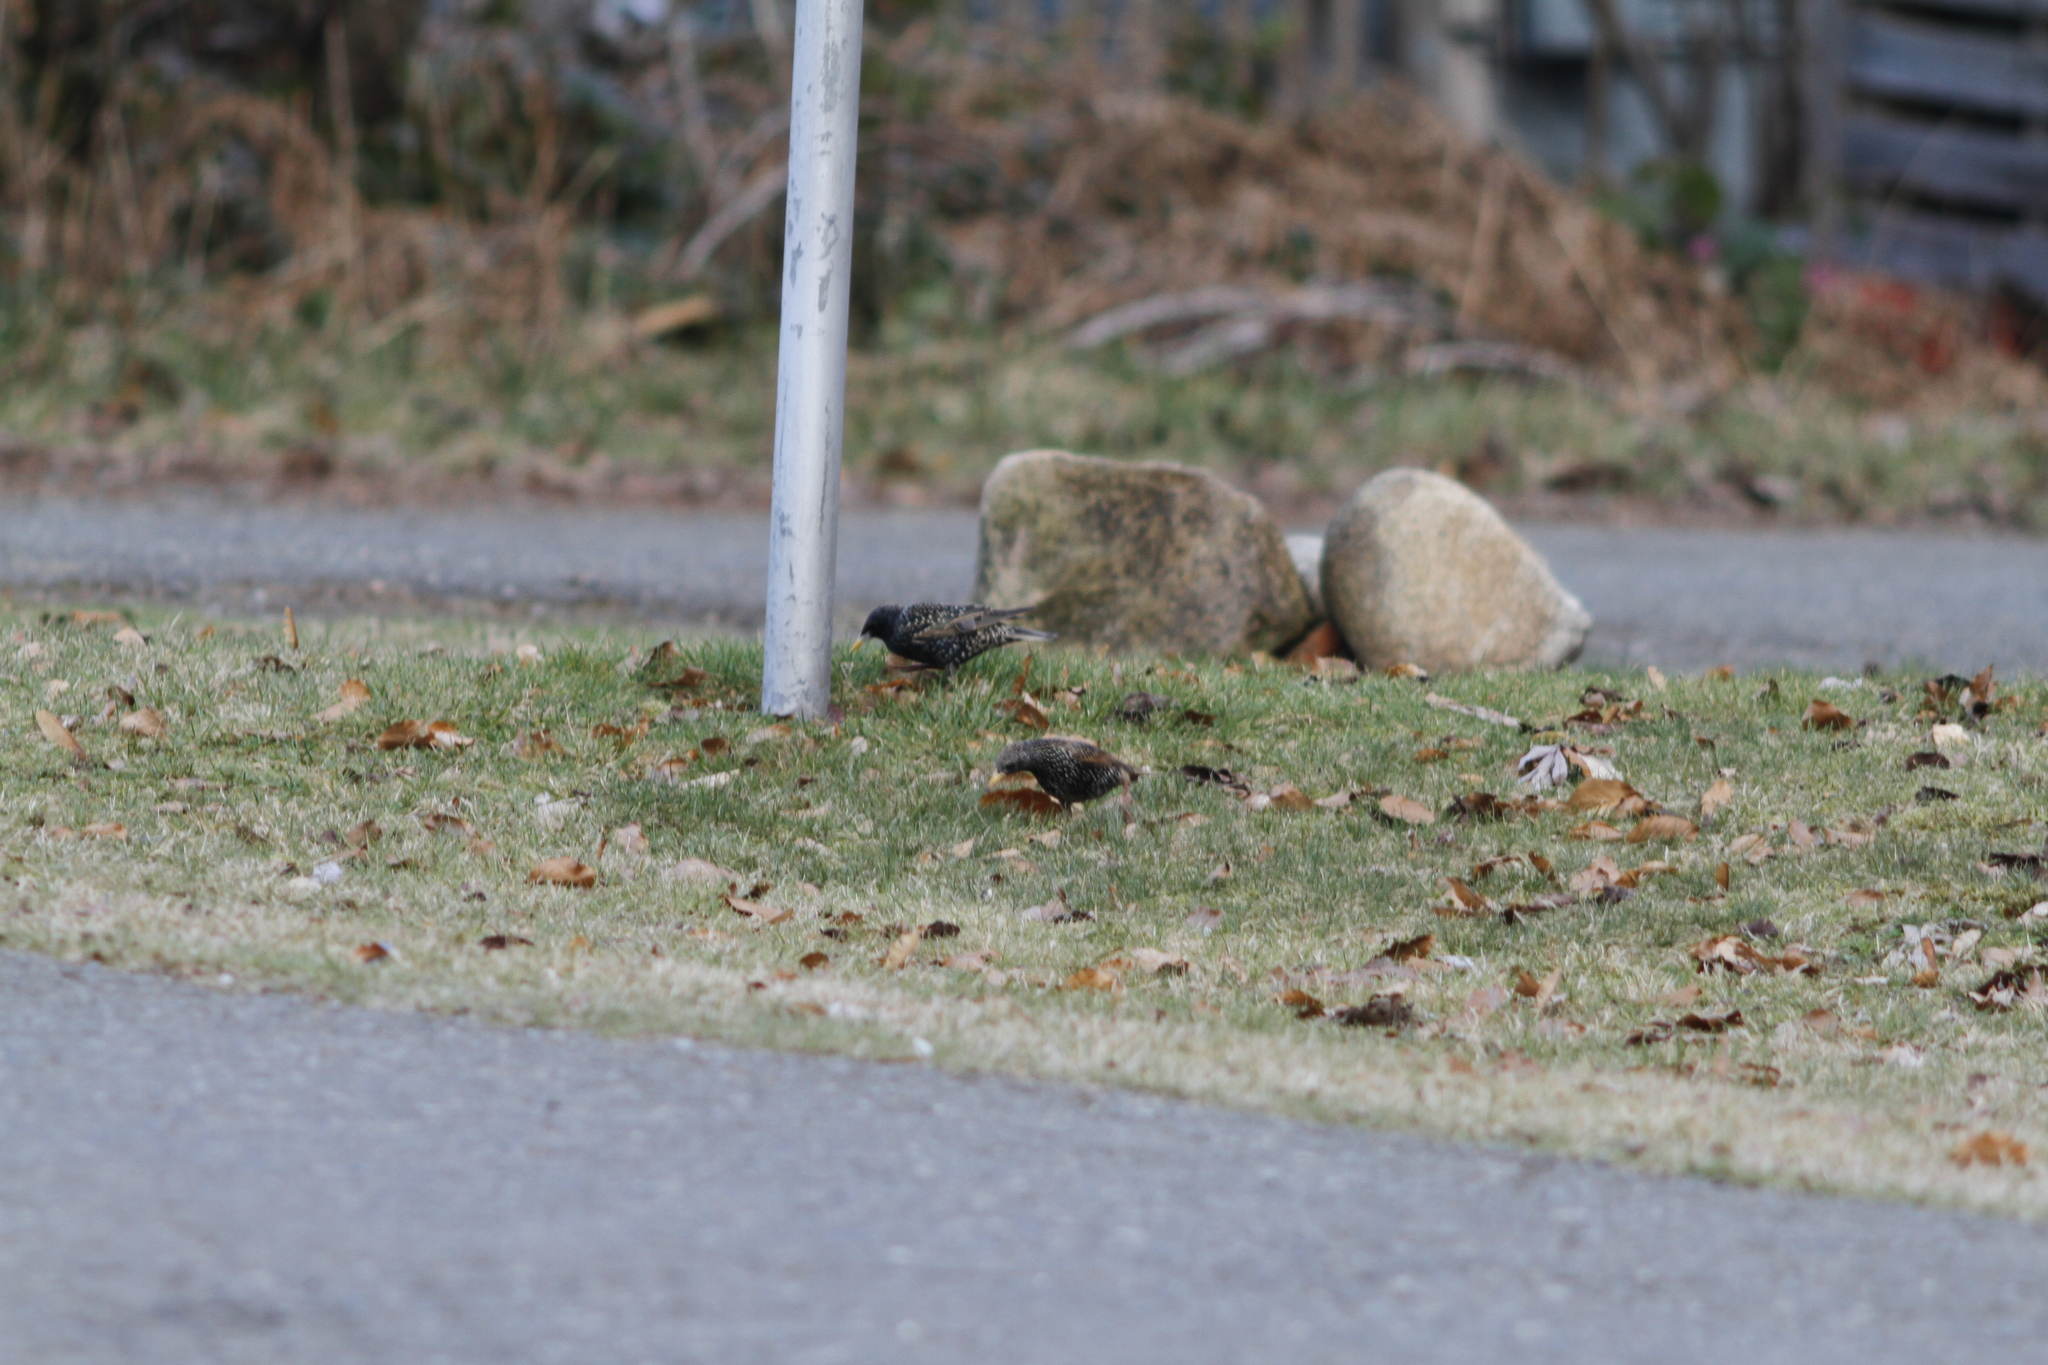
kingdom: Animalia
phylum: Chordata
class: Aves
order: Passeriformes
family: Sturnidae
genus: Sturnus
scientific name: Sturnus vulgaris
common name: Common starling
